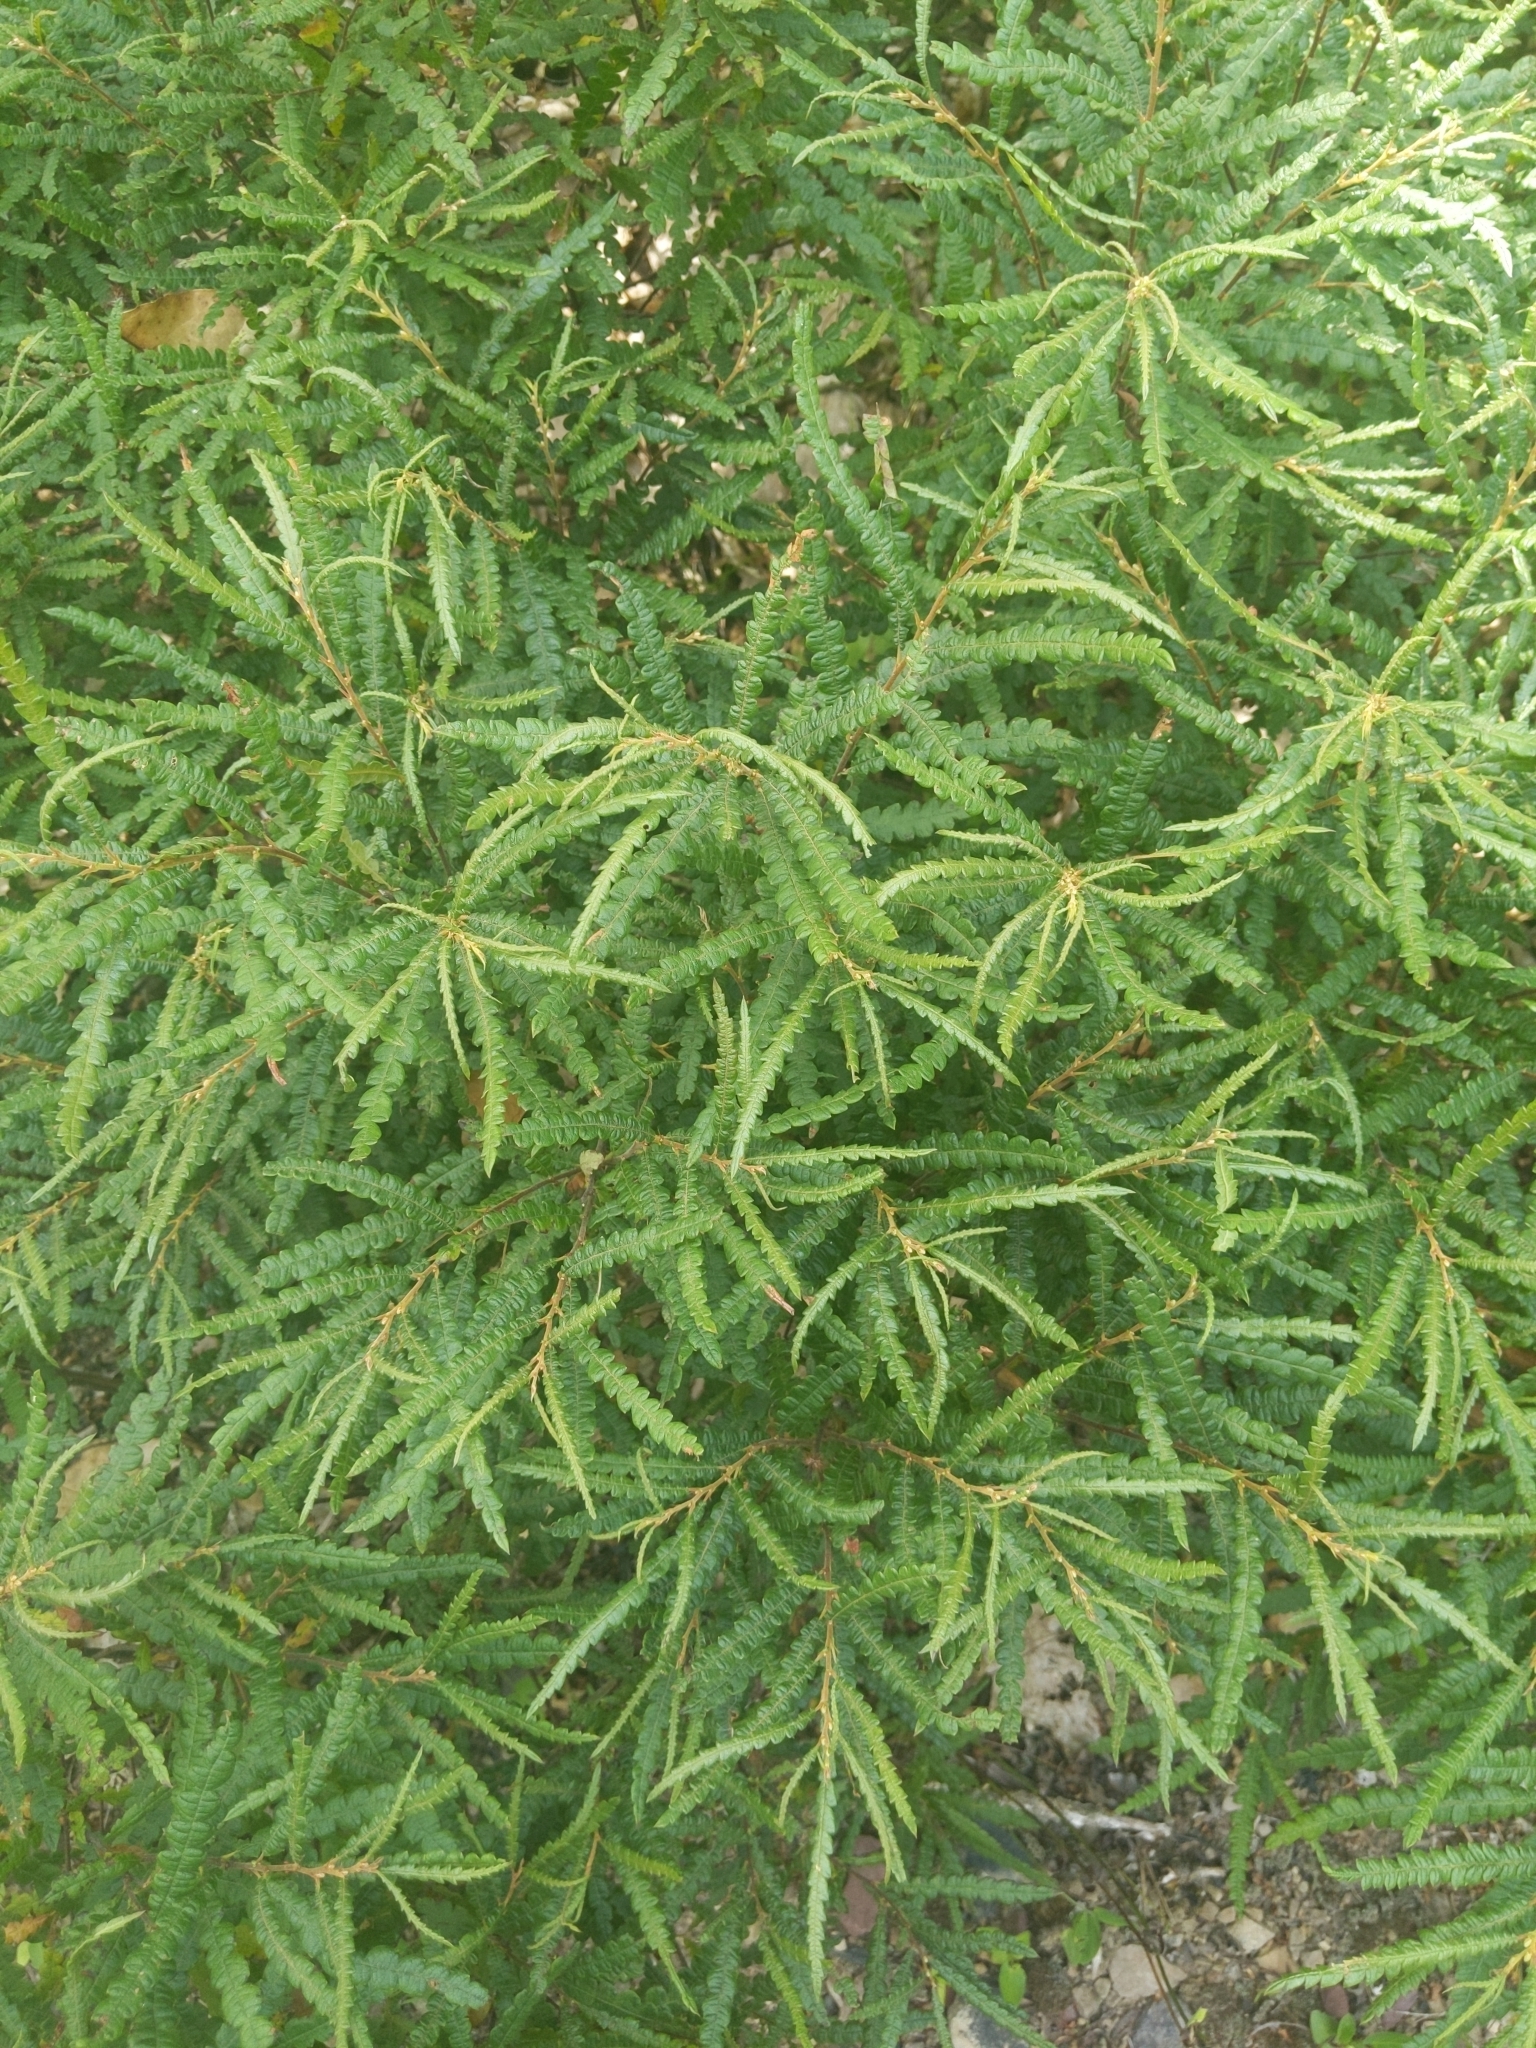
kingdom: Plantae
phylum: Tracheophyta
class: Magnoliopsida
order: Fagales
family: Myricaceae
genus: Comptonia
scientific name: Comptonia peregrina
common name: Sweet-fern
